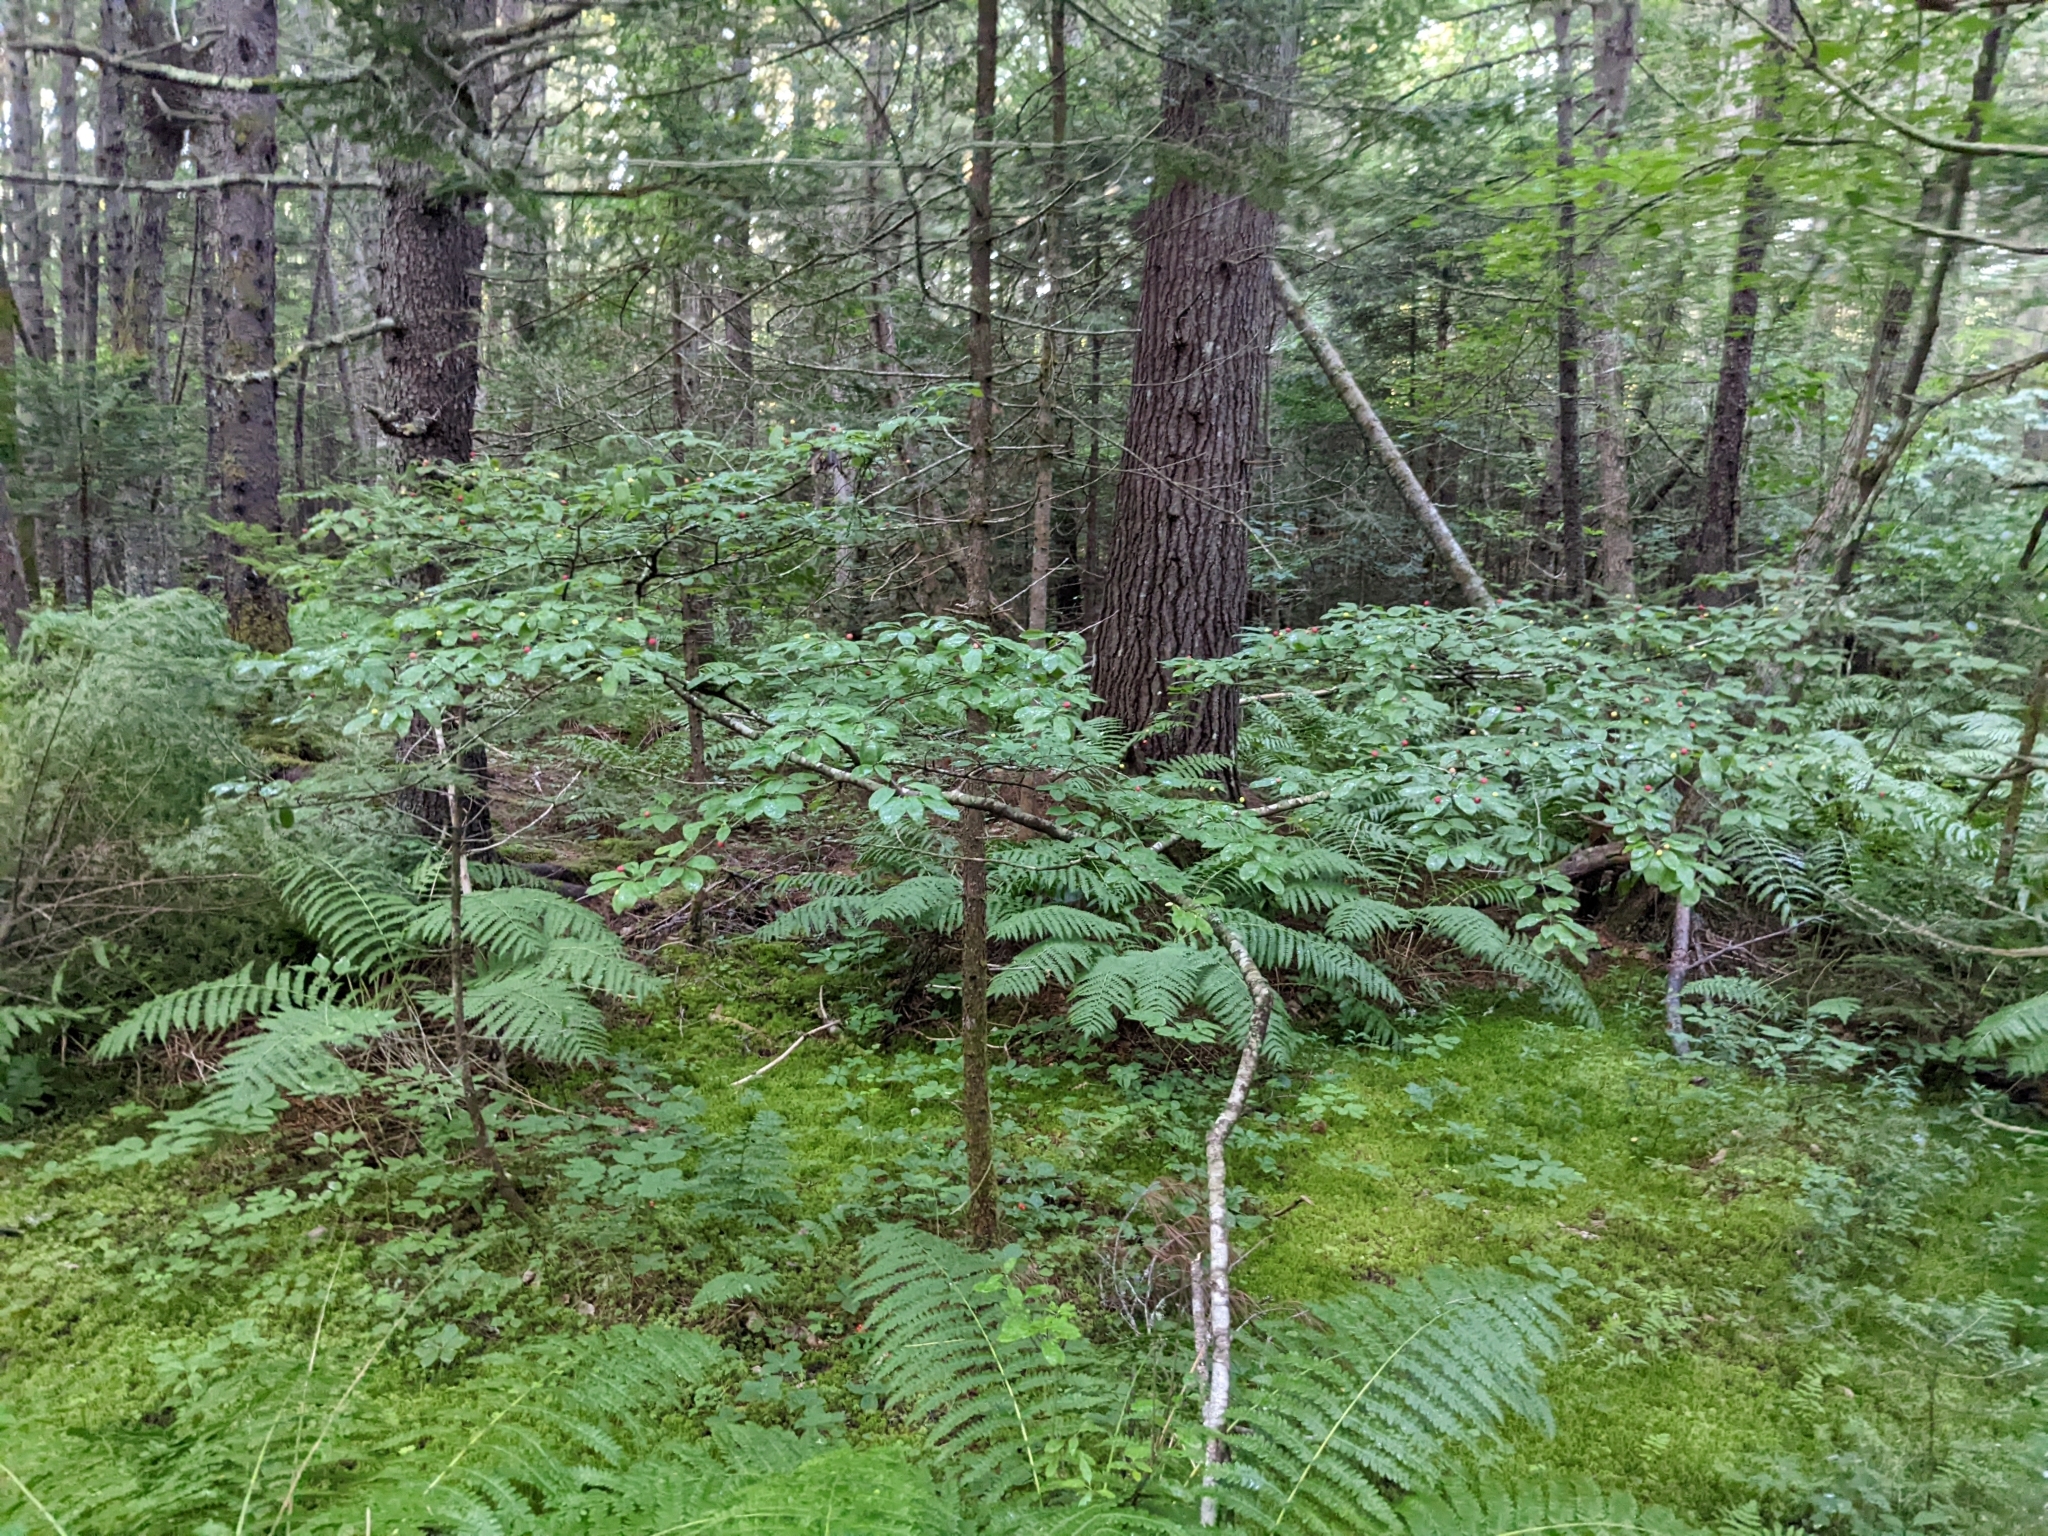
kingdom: Plantae
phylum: Tracheophyta
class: Magnoliopsida
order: Aquifoliales
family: Aquifoliaceae
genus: Ilex
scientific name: Ilex mucronata
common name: Catberry
